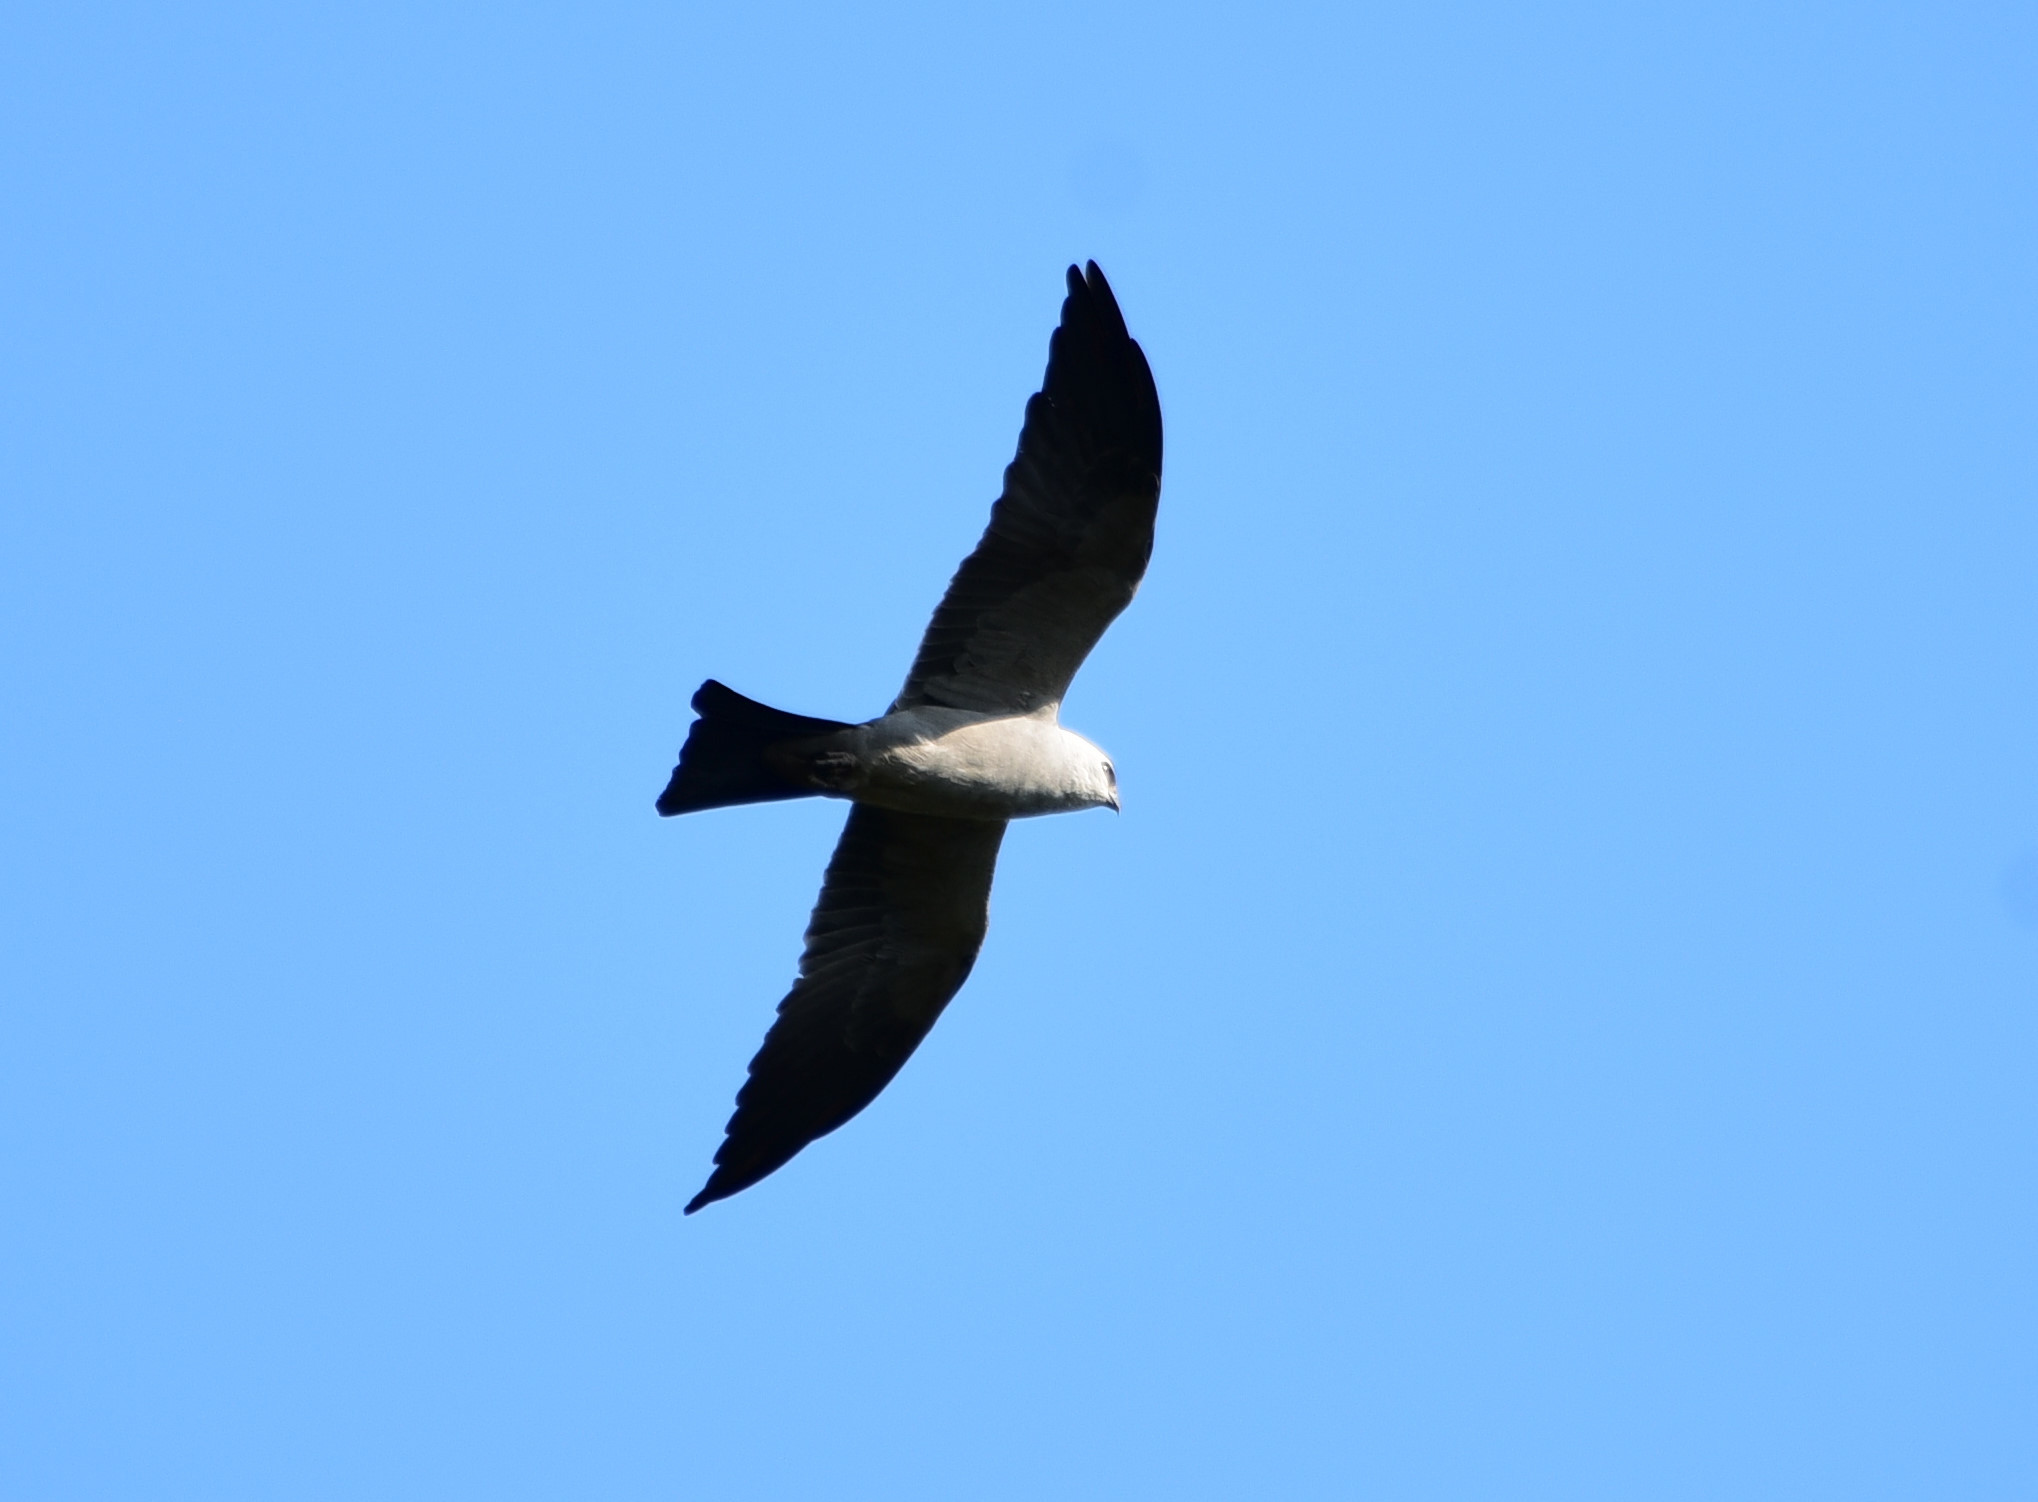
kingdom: Animalia
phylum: Chordata
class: Aves
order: Accipitriformes
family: Accipitridae
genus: Ictinia
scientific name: Ictinia mississippiensis
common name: Mississippi kite
